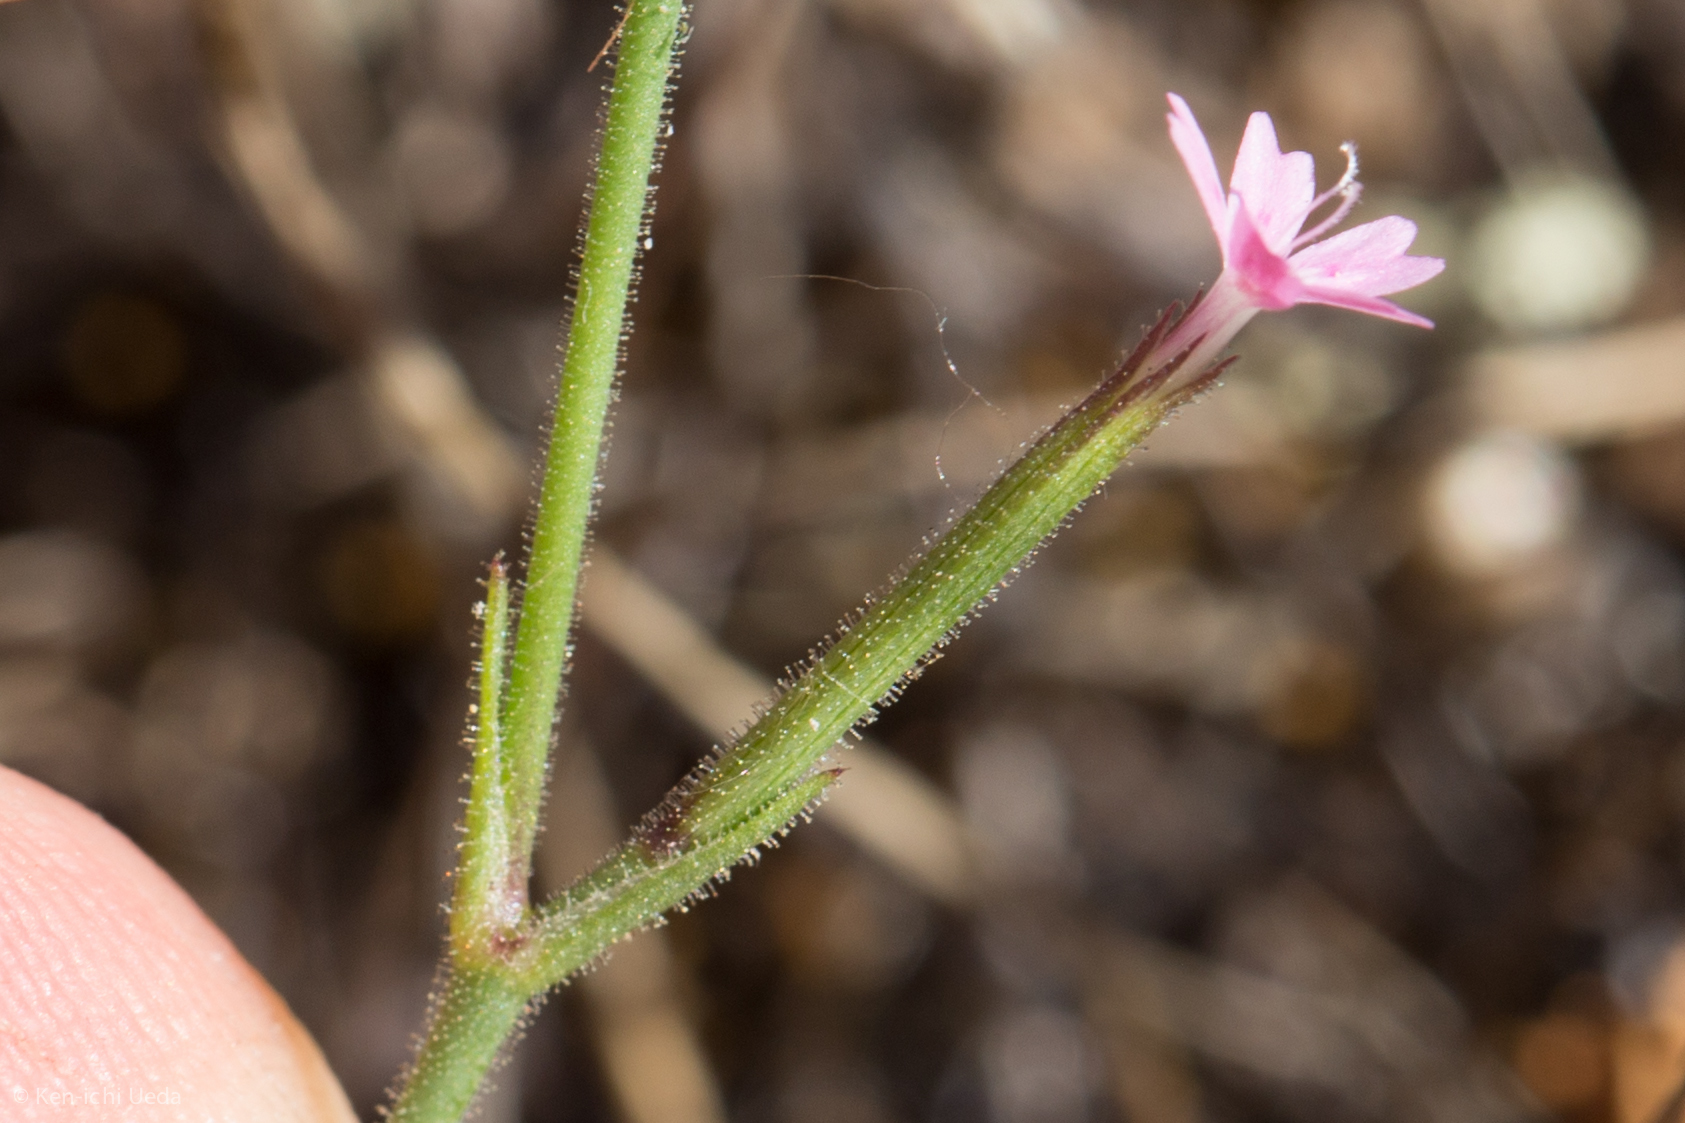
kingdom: Plantae
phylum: Tracheophyta
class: Magnoliopsida
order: Caryophyllales
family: Caryophyllaceae
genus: Dianthus
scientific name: Dianthus nudiflorus
